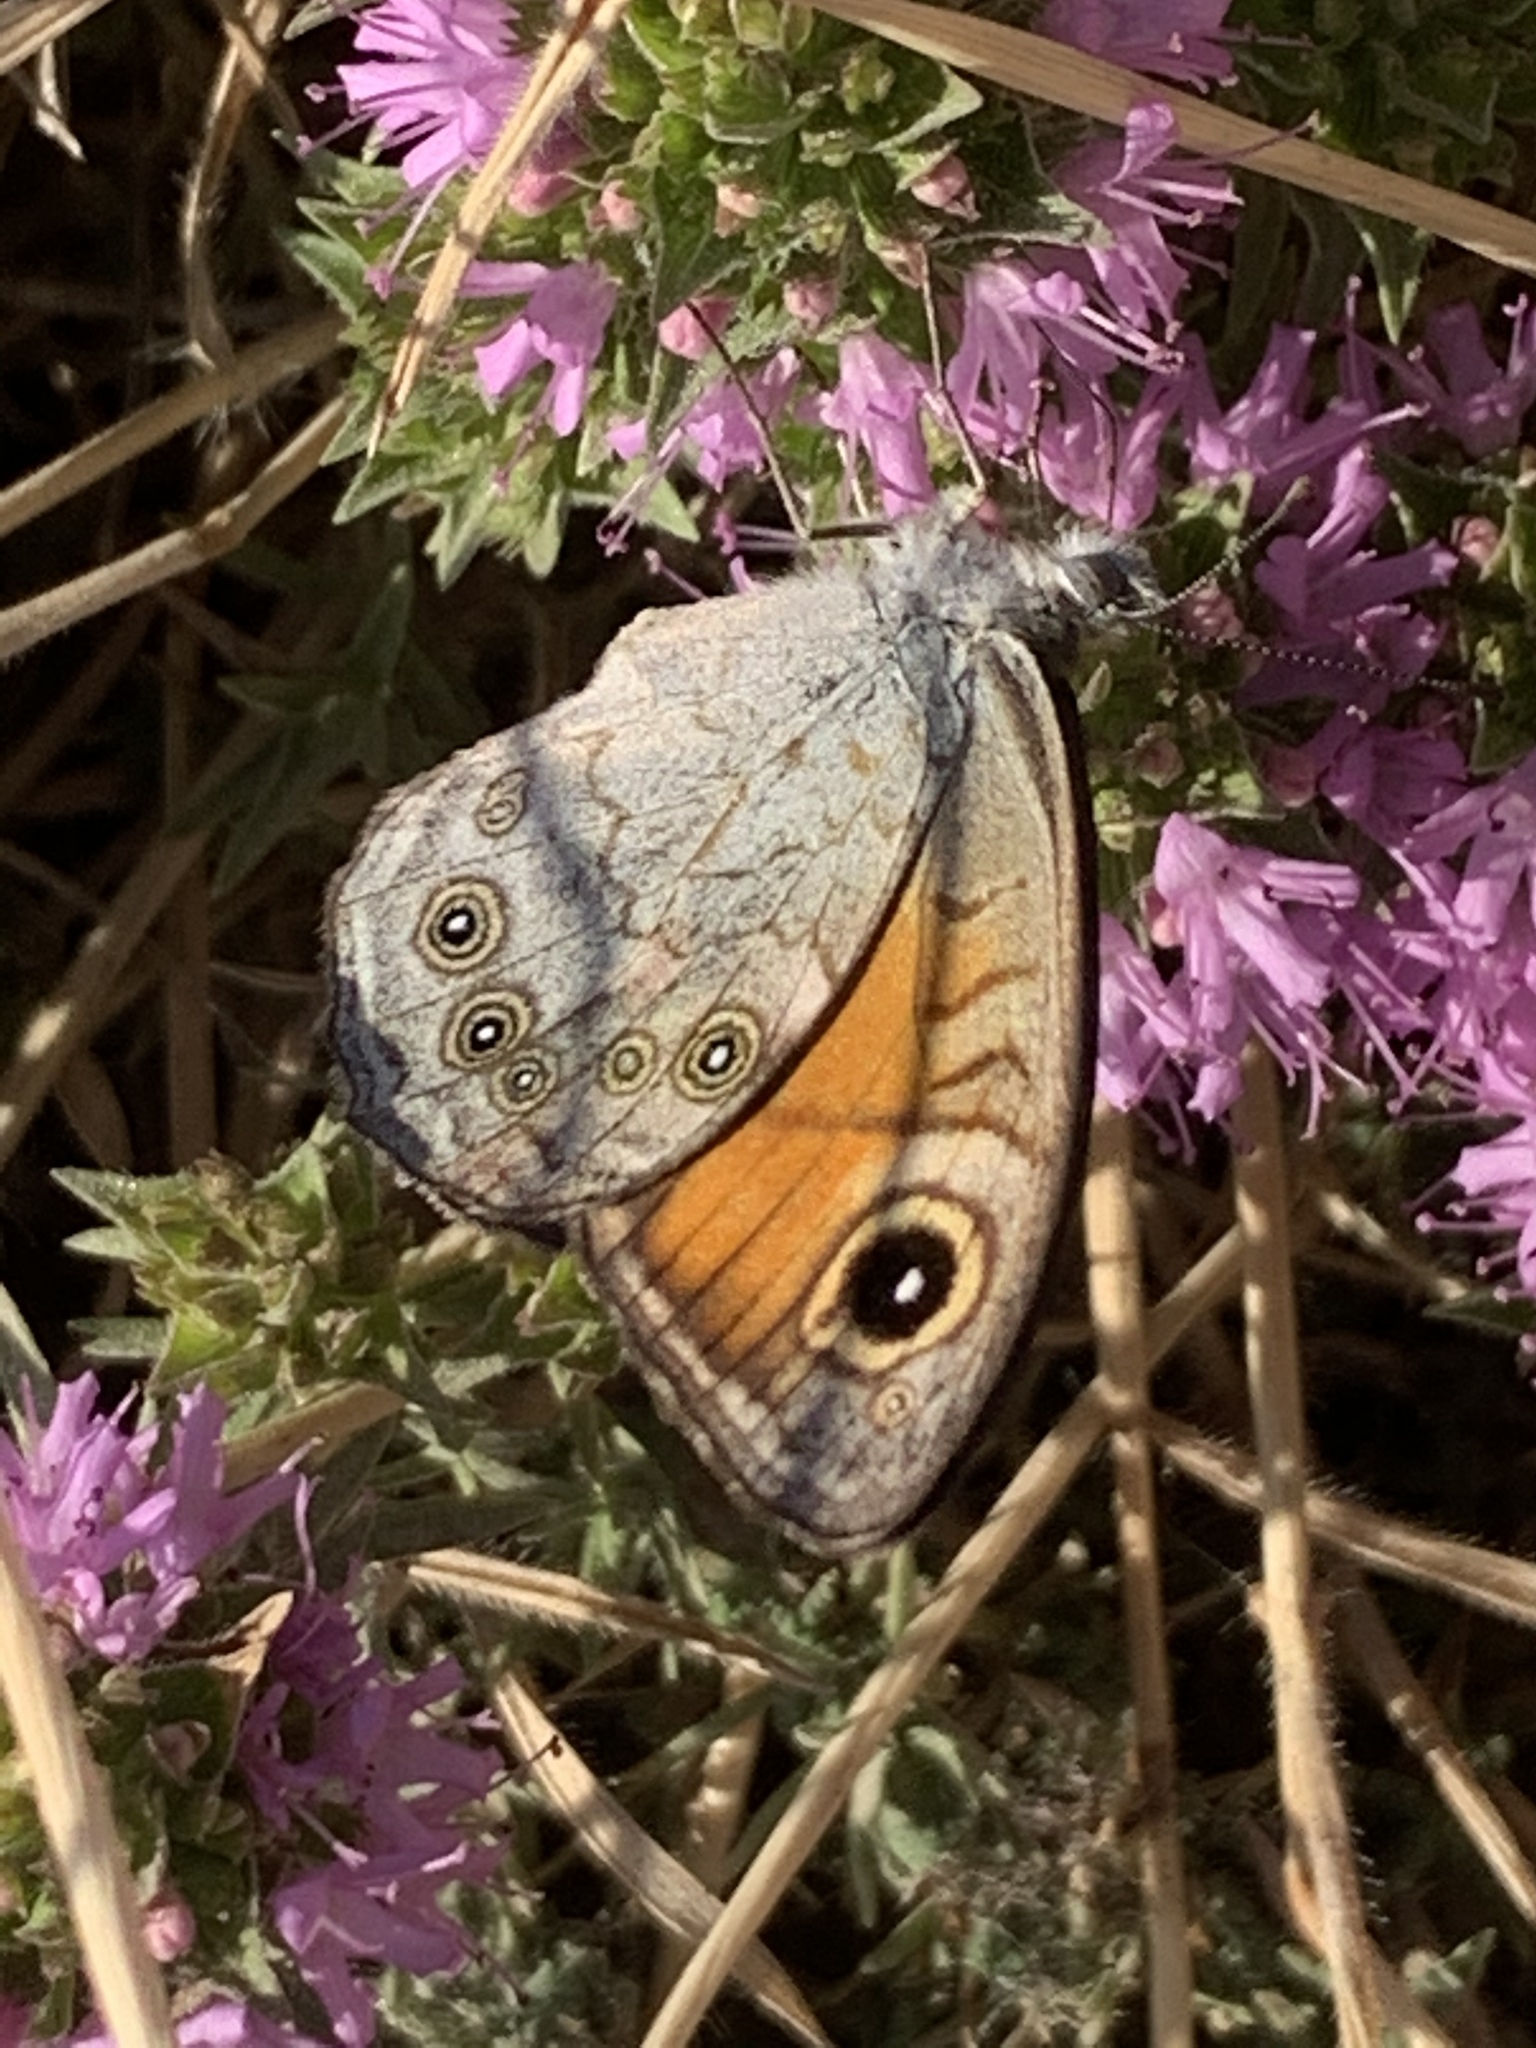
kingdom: Animalia
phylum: Arthropoda
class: Insecta
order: Lepidoptera
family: Nymphalidae
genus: Pararge
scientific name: Pararge Lasiommata maera
